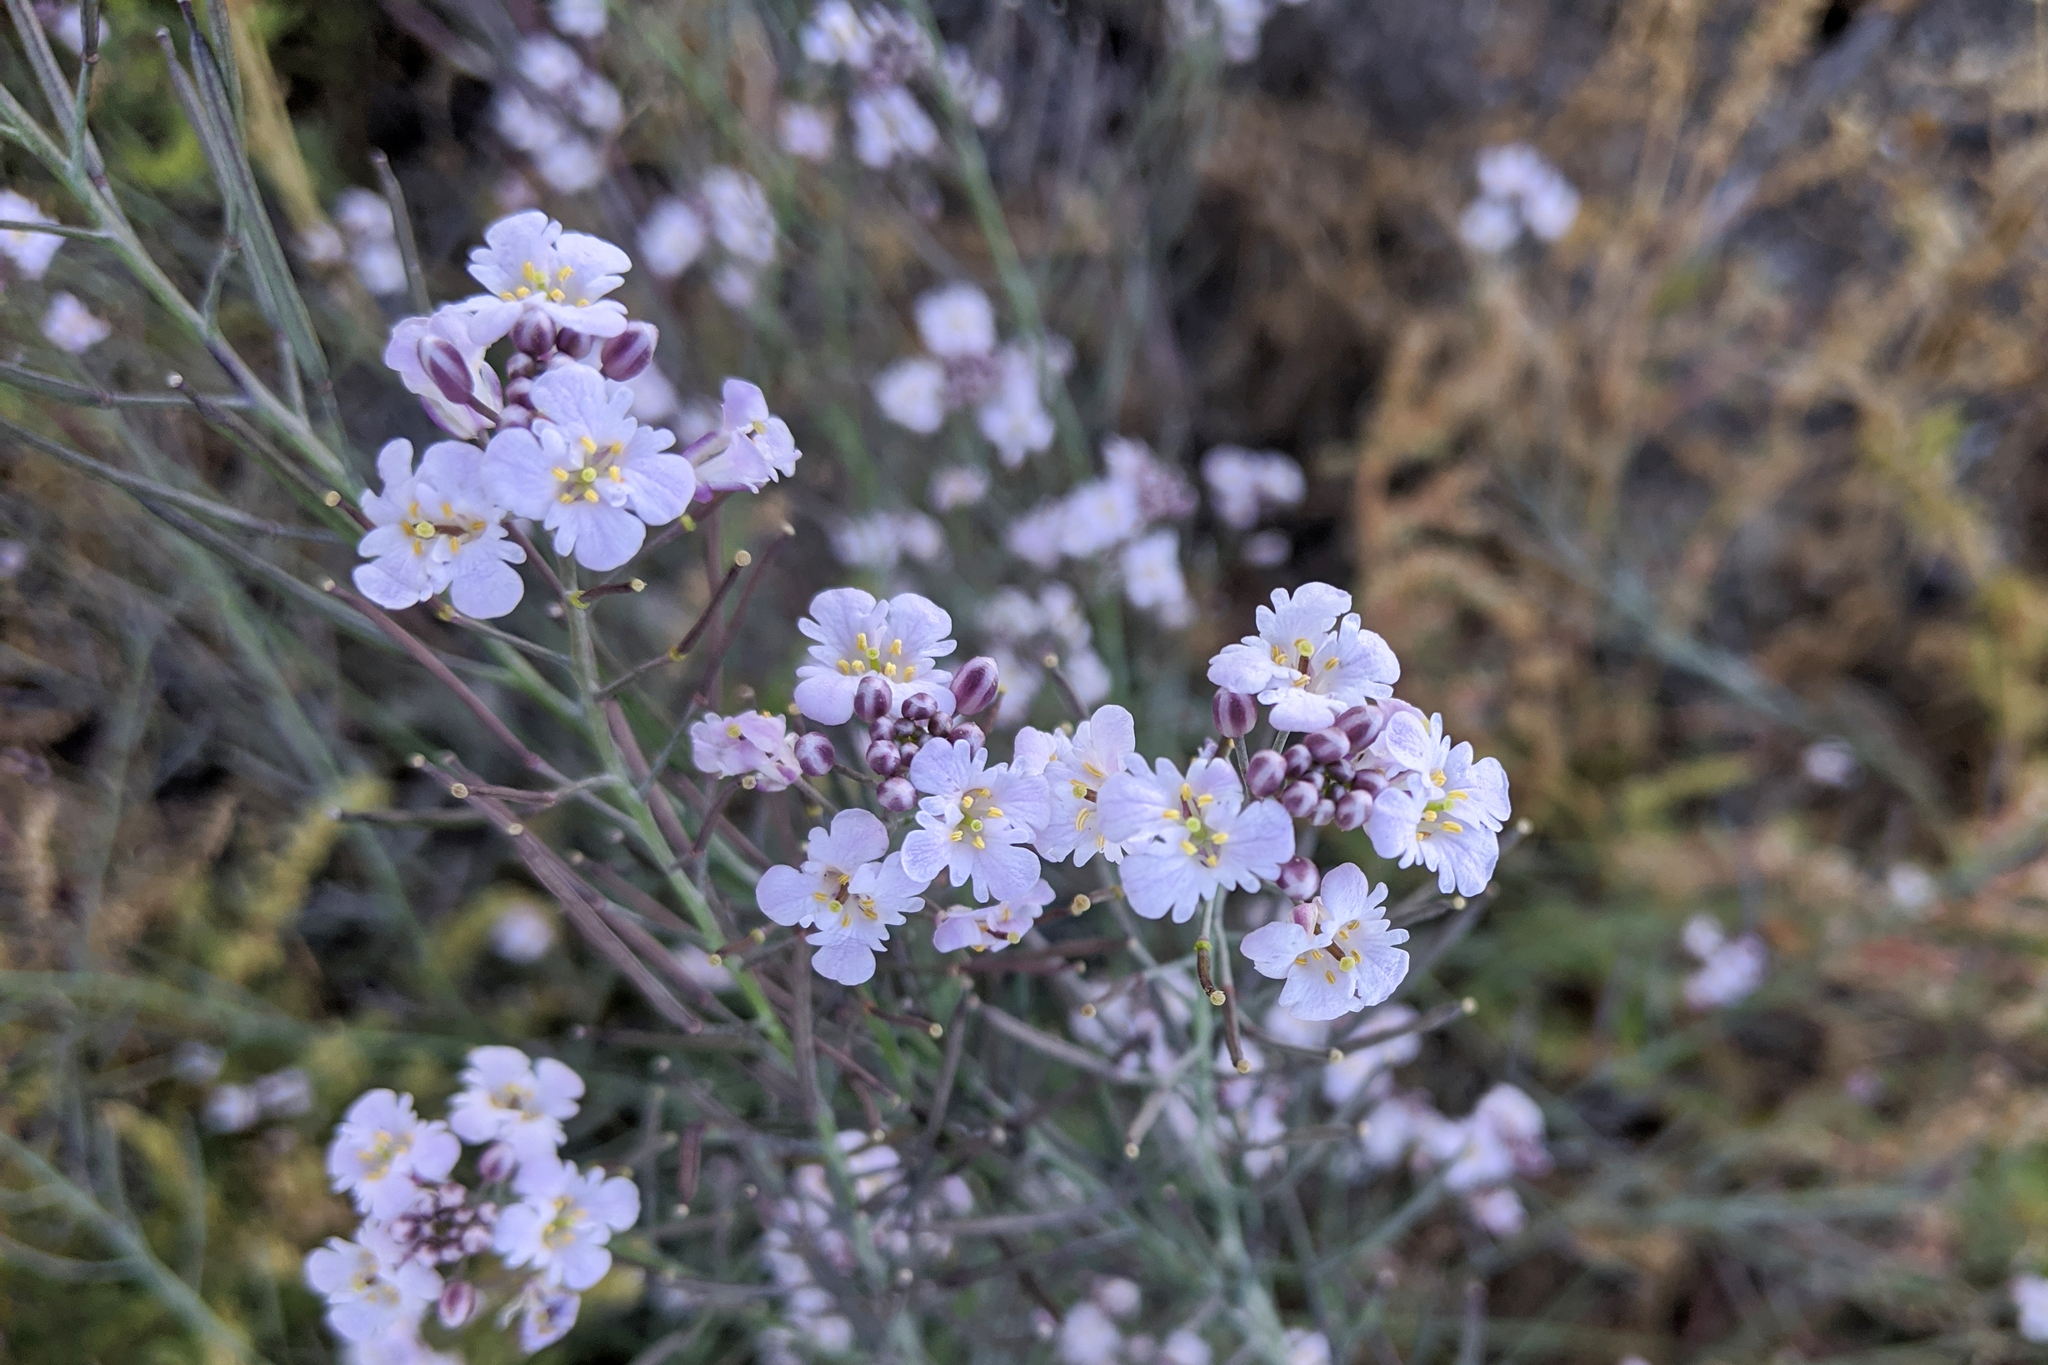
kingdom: Plantae
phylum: Tracheophyta
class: Magnoliopsida
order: Brassicales
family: Brassicaceae
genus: Dryopetalon
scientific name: Dryopetalon palmeri
